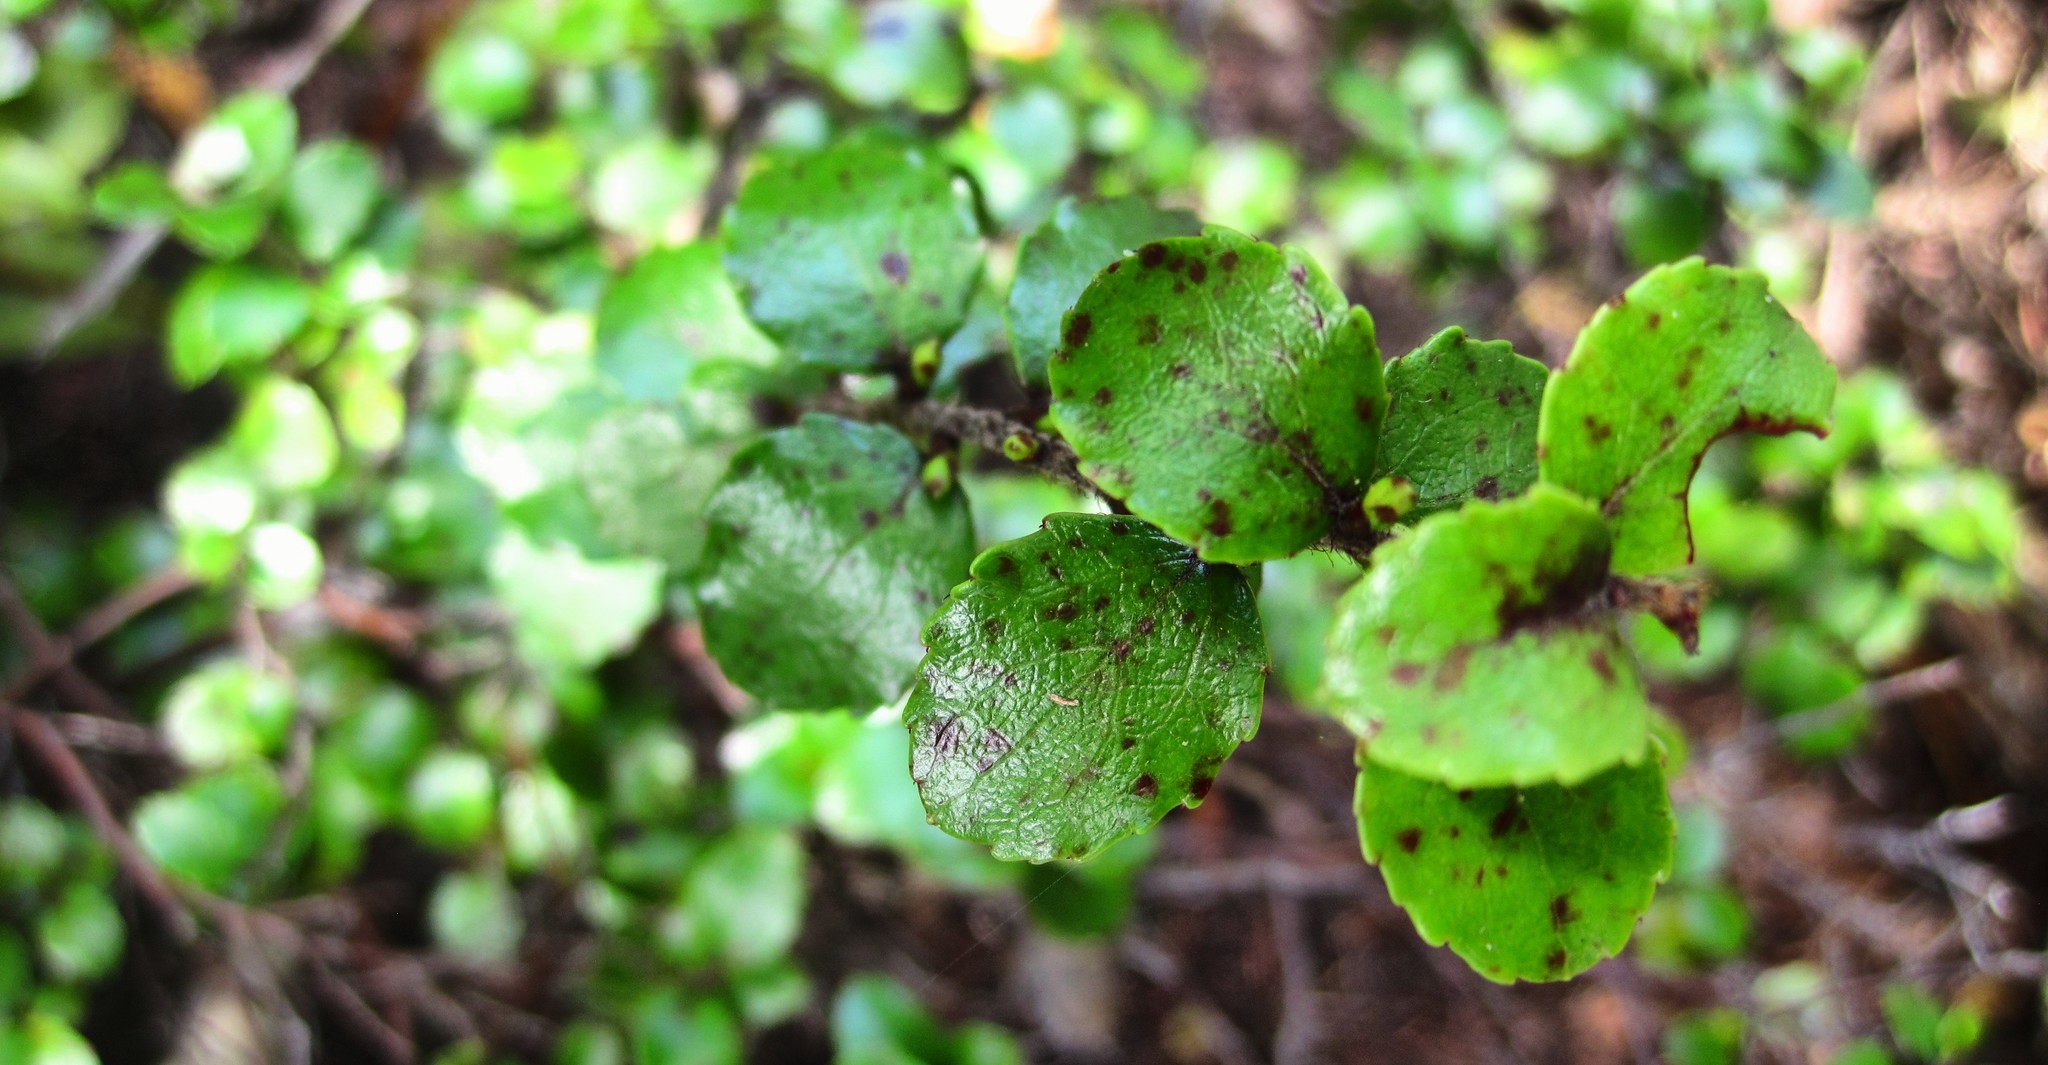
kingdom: Plantae
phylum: Tracheophyta
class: Magnoliopsida
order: Ericales
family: Ericaceae
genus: Gaultheria
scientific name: Gaultheria antipoda
